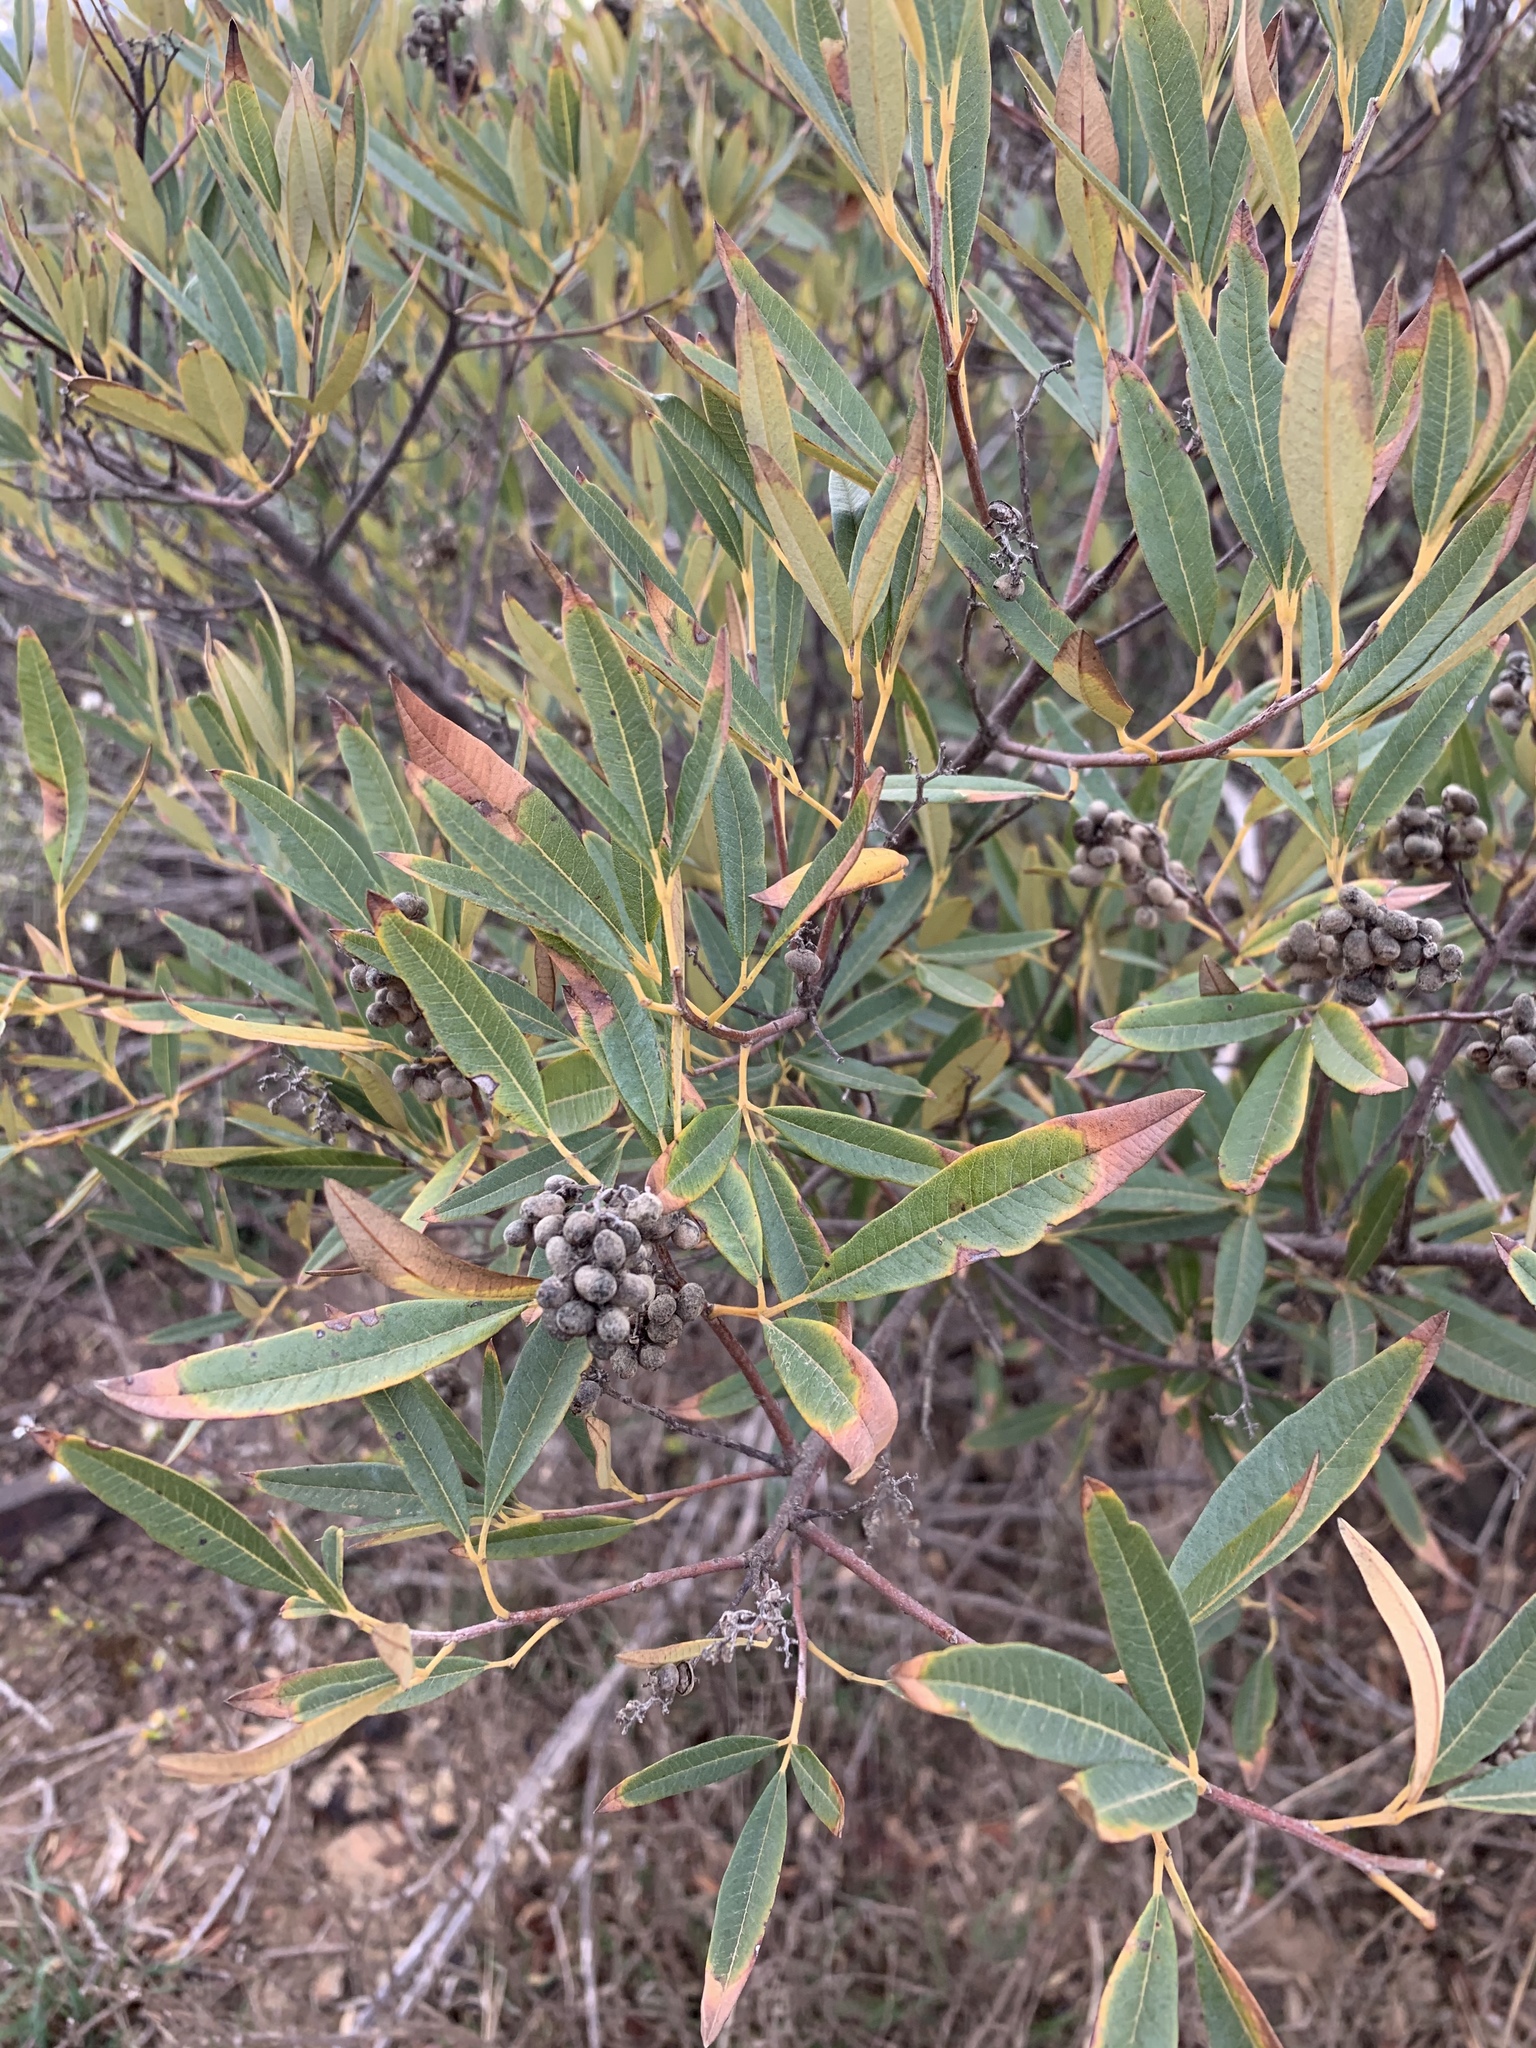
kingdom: Plantae
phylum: Tracheophyta
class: Magnoliopsida
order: Sapindales
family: Anacardiaceae
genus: Searsia
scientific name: Searsia angustifolia
